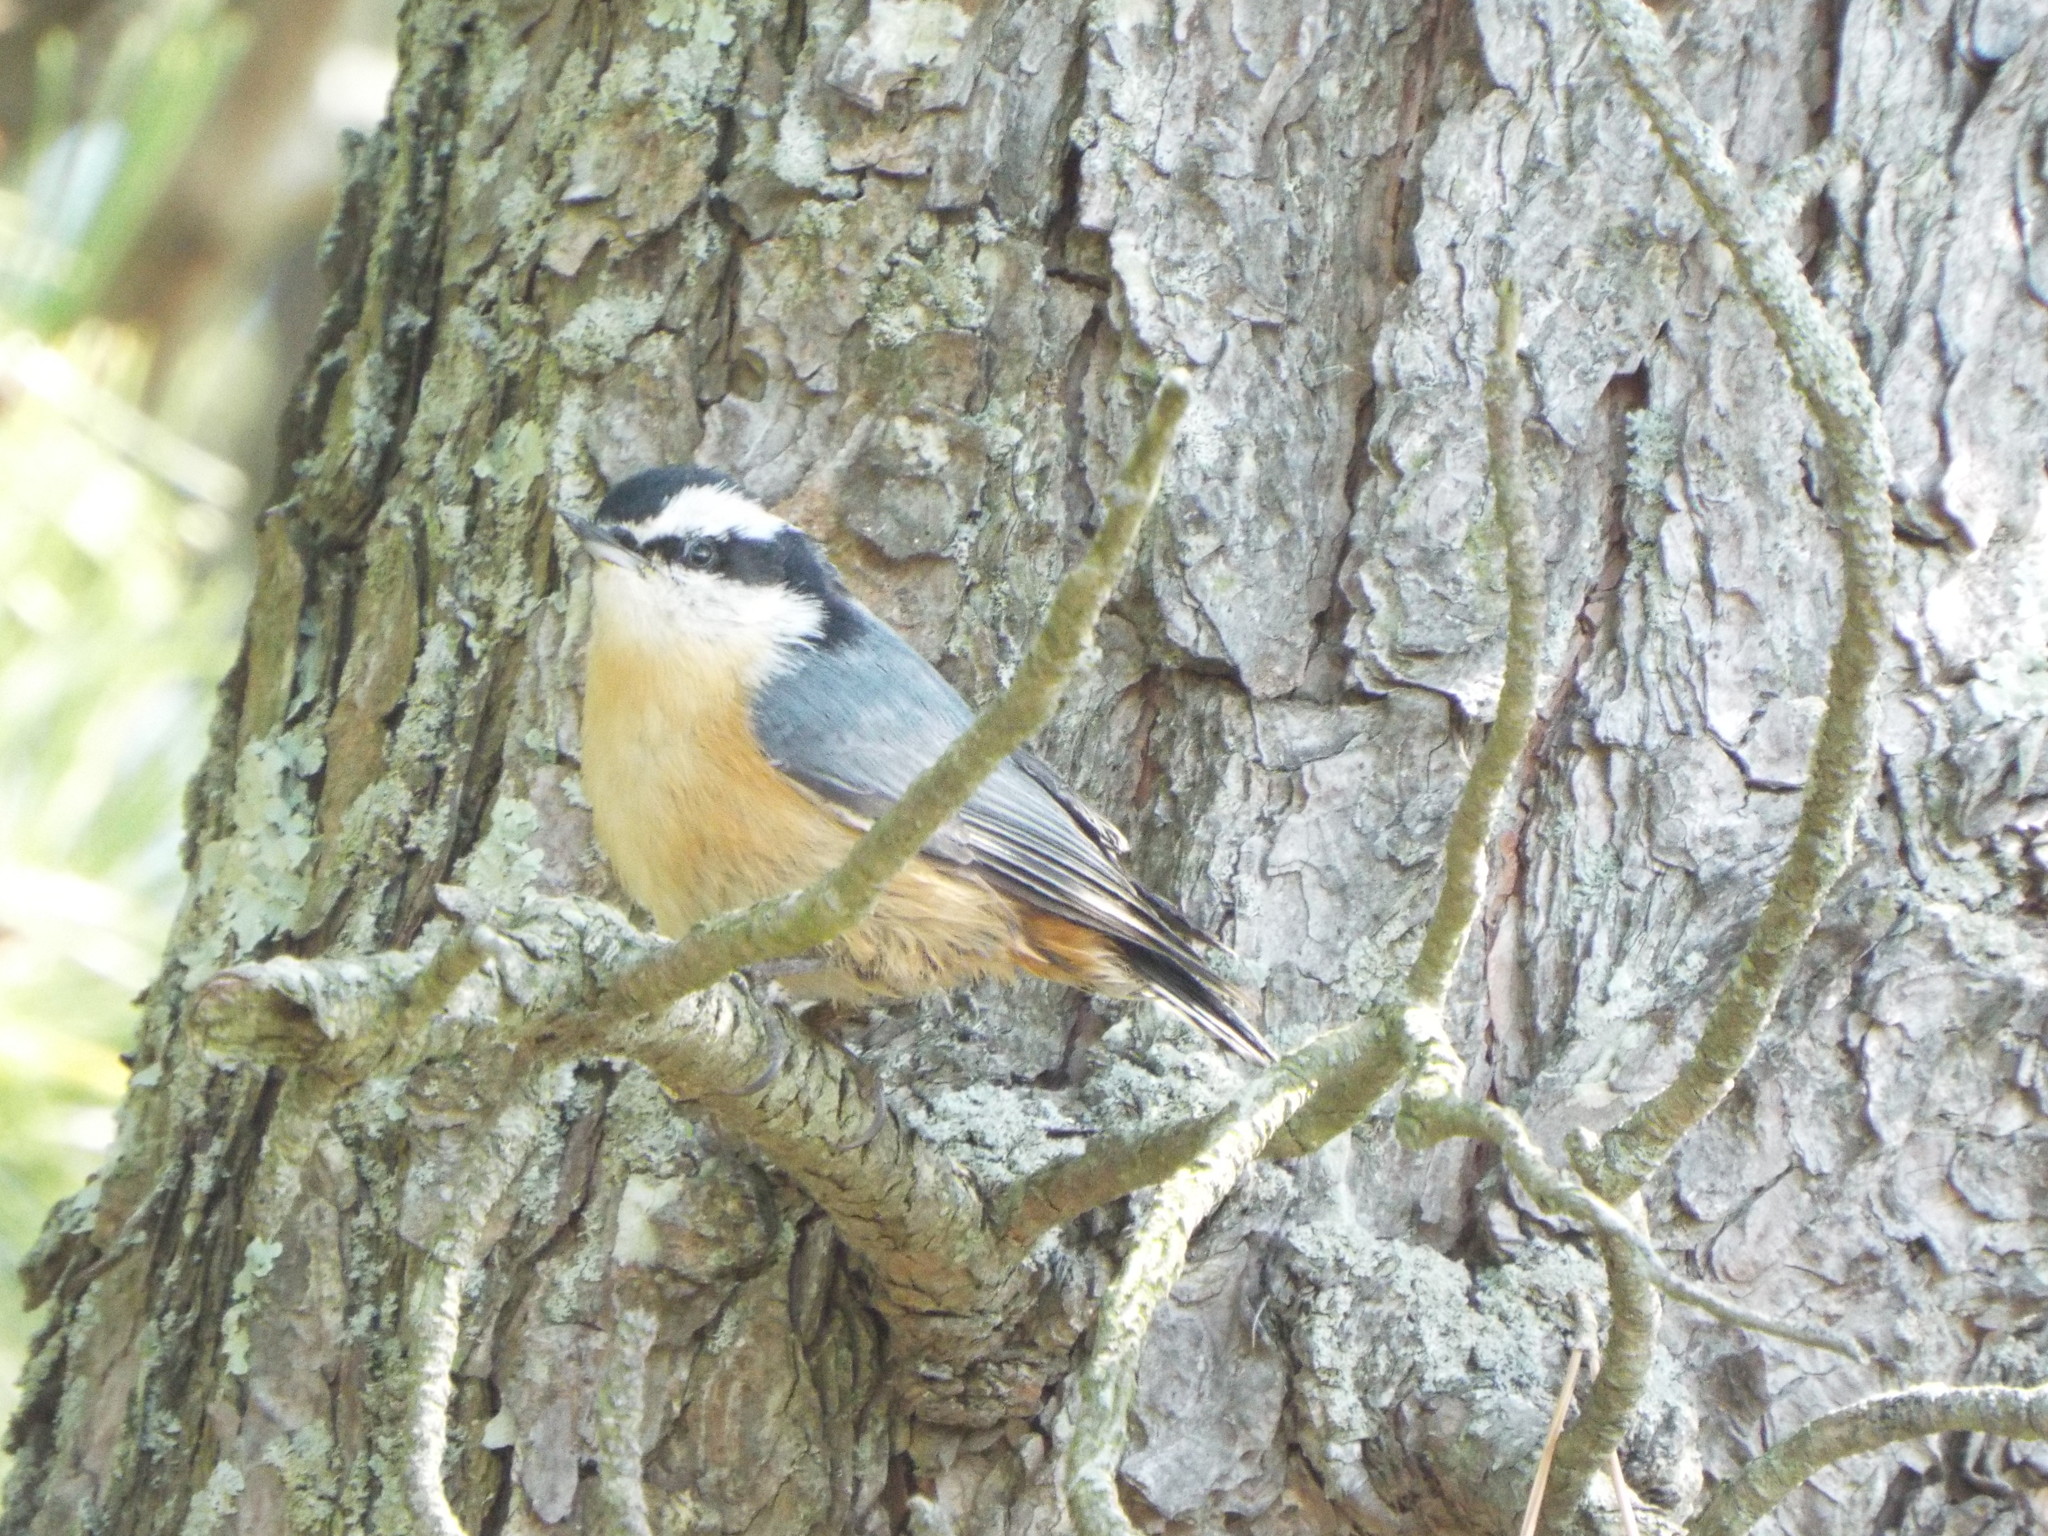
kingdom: Animalia
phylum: Chordata
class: Aves
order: Passeriformes
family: Sittidae
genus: Sitta
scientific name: Sitta canadensis
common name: Red-breasted nuthatch
